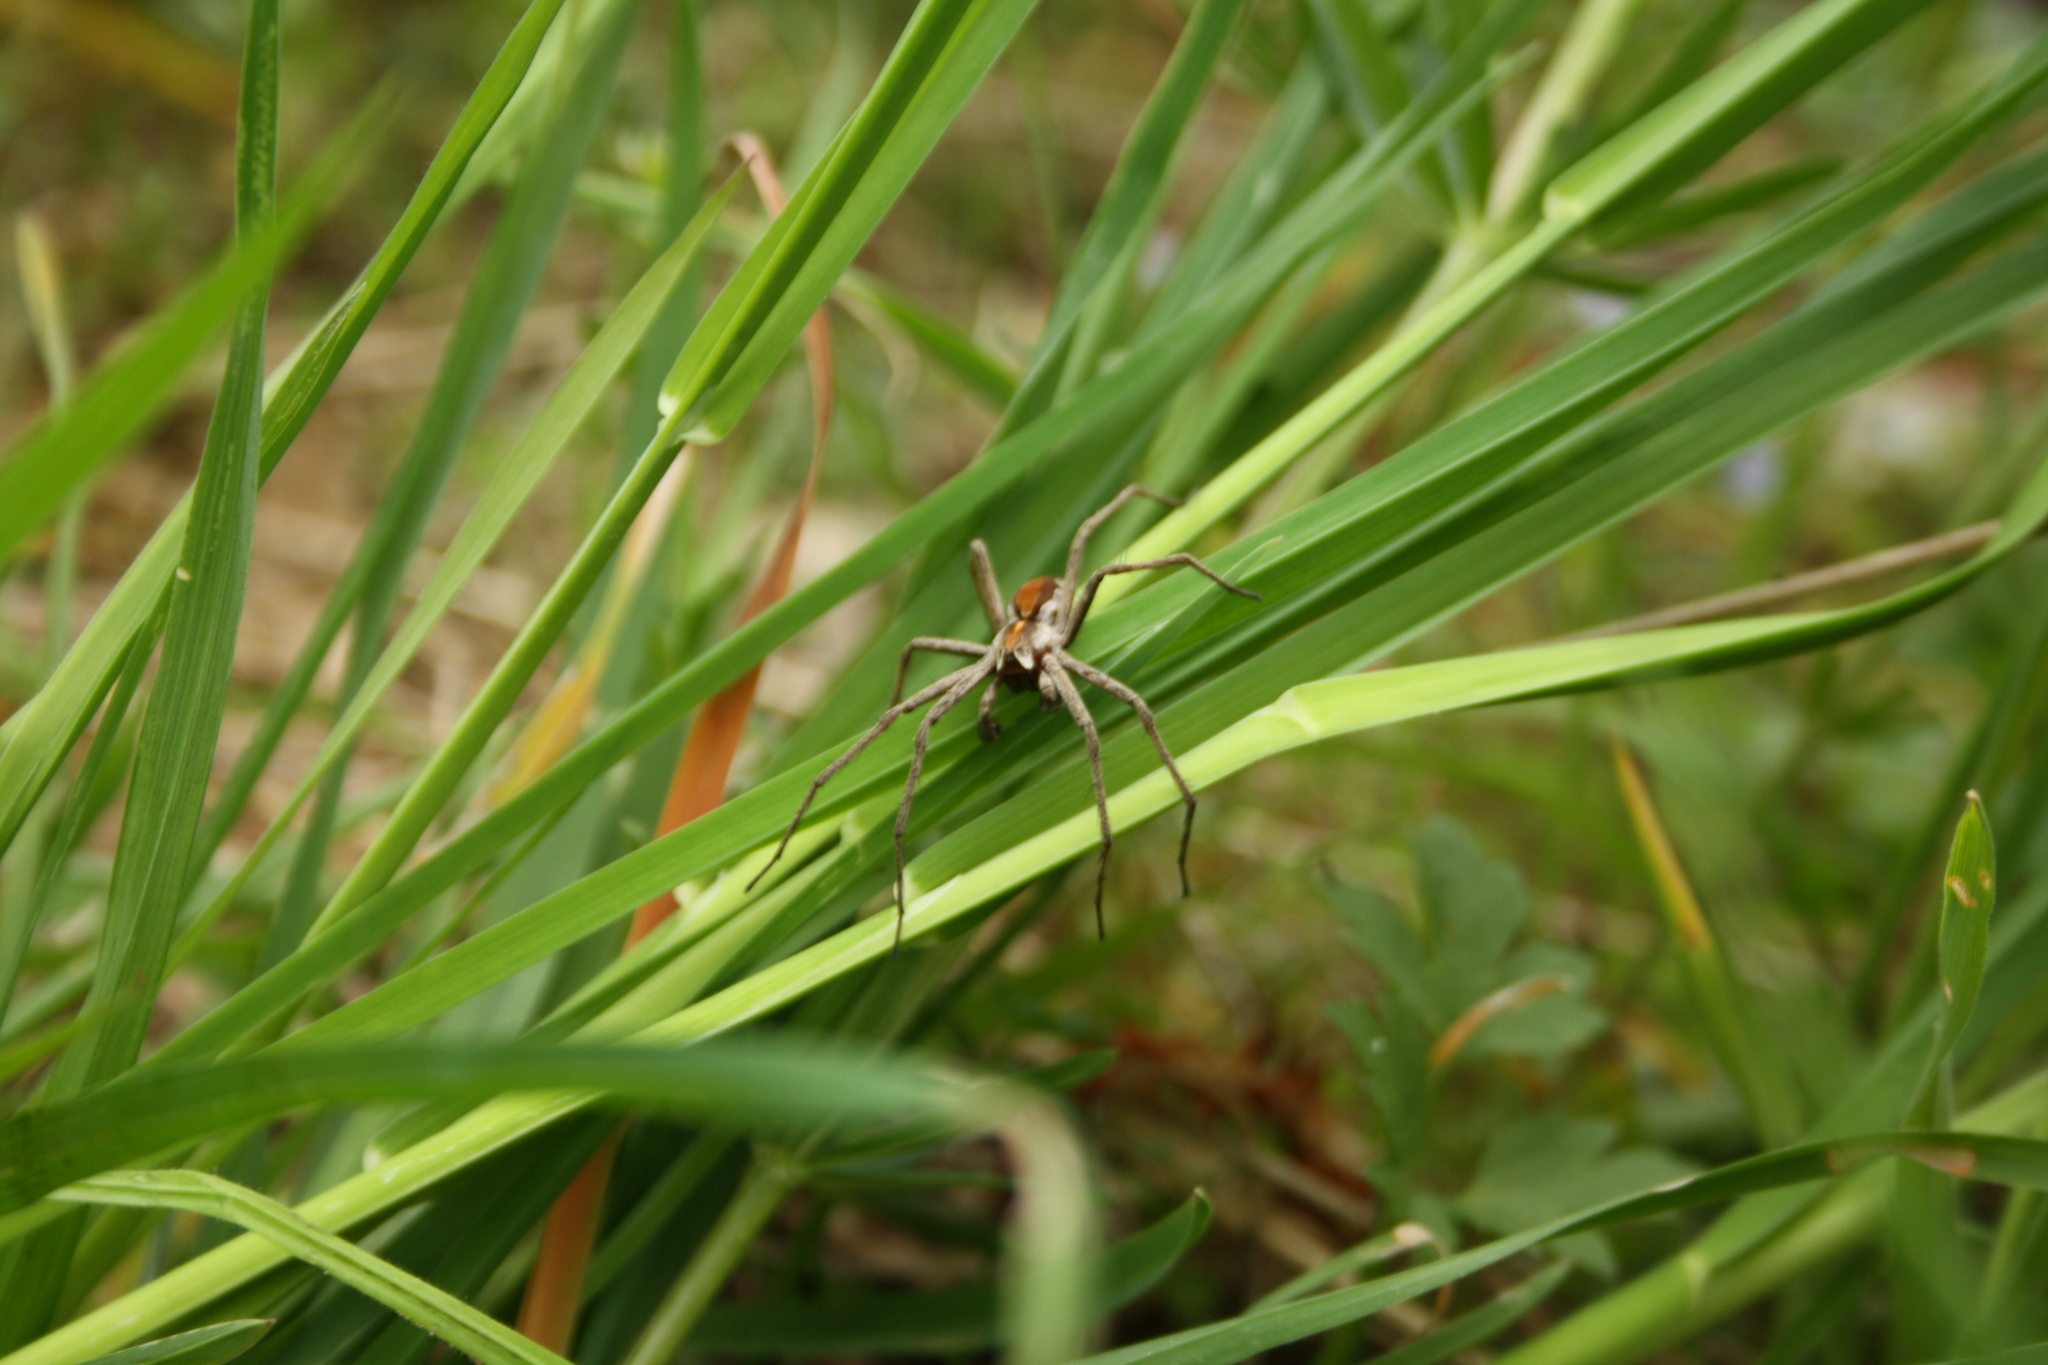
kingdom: Animalia
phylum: Arthropoda
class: Arachnida
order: Araneae
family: Pisauridae
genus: Pisaura
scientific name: Pisaura mirabilis
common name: Tent spider
